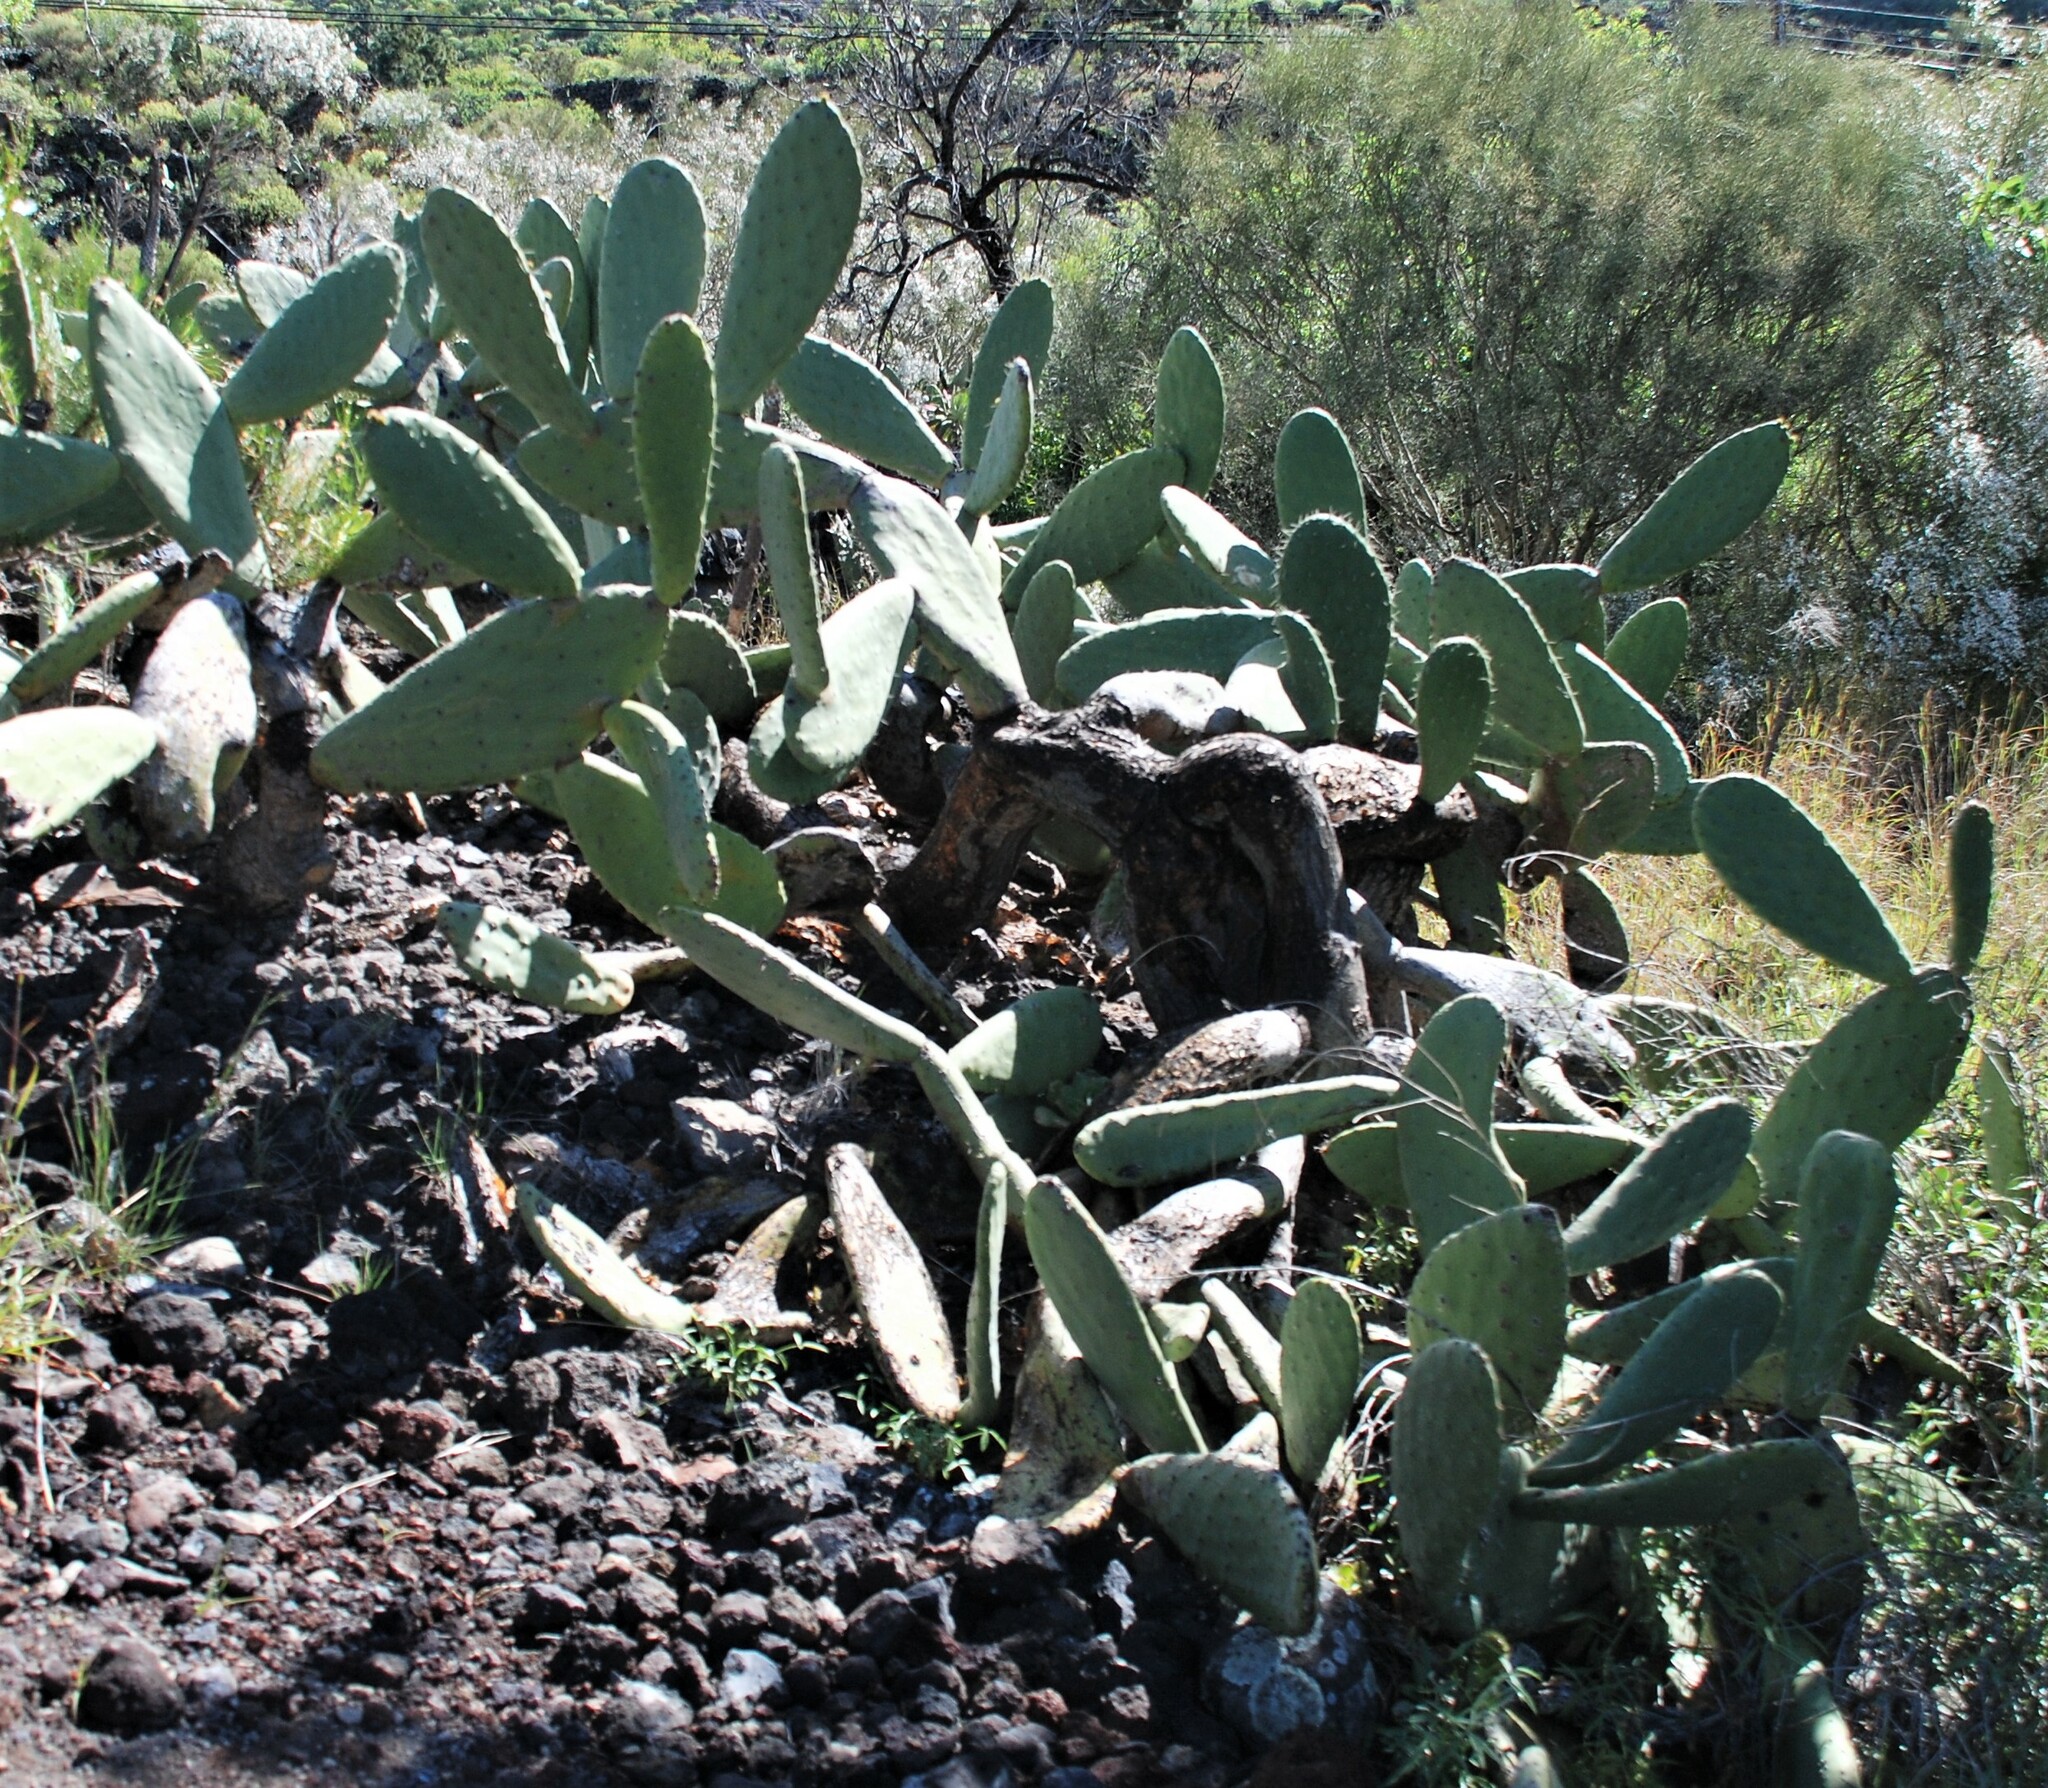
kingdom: Plantae
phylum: Tracheophyta
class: Magnoliopsida
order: Caryophyllales
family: Cactaceae
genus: Opuntia
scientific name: Opuntia ficus-indica
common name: Barbary fig
